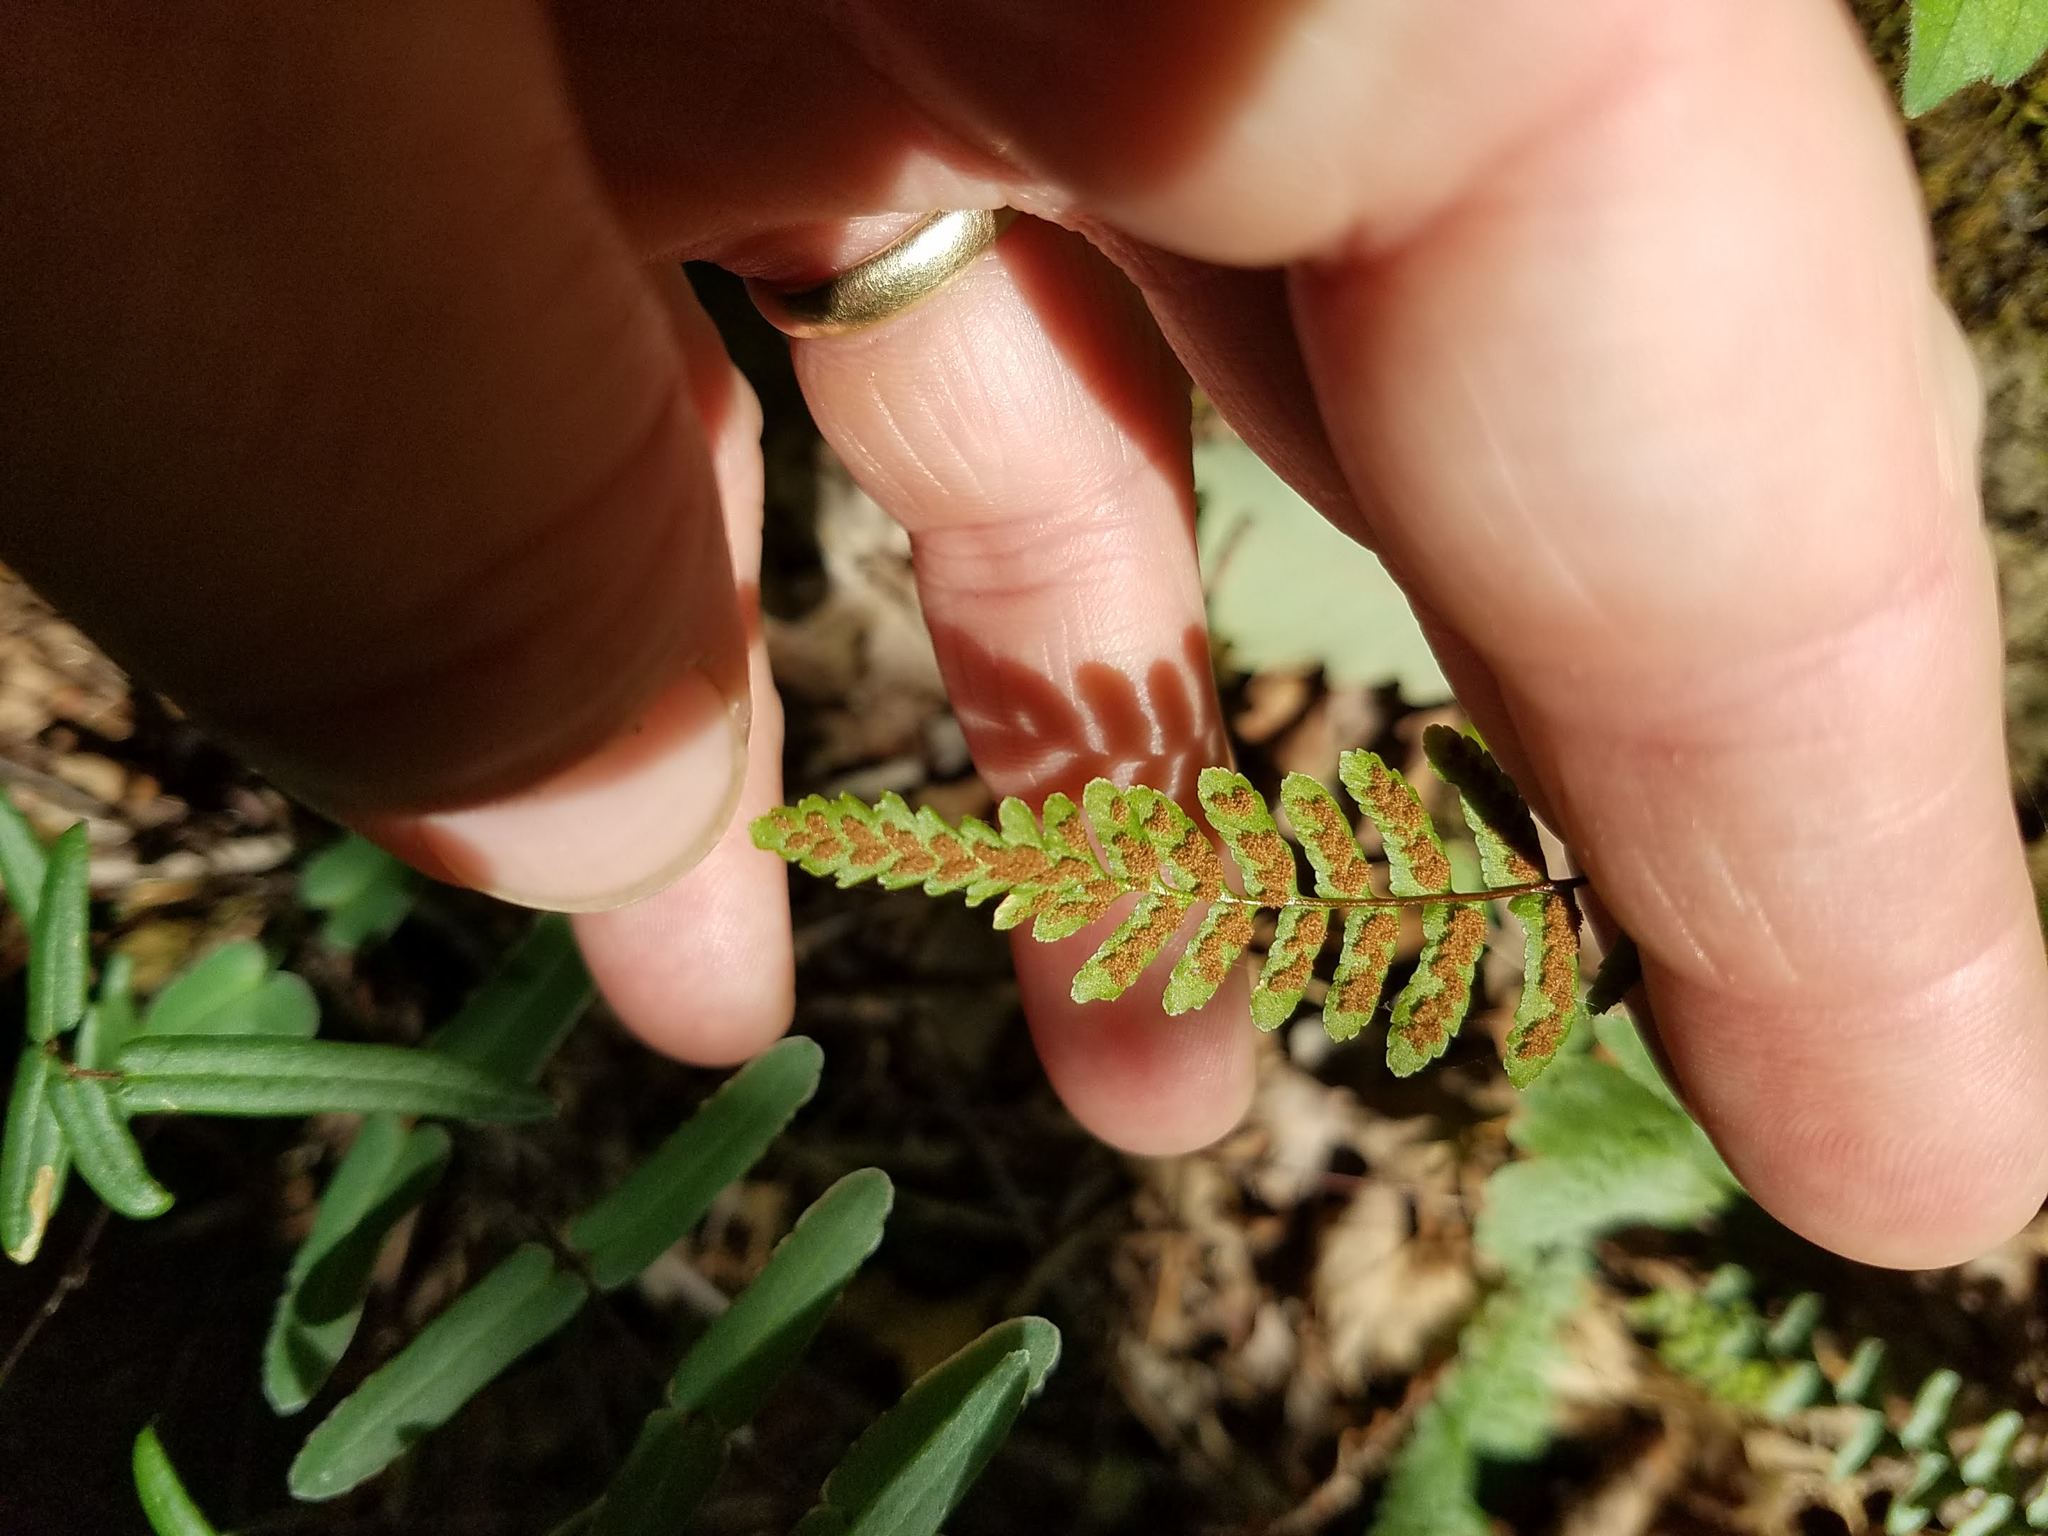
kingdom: Plantae
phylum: Tracheophyta
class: Polypodiopsida
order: Polypodiales
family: Aspleniaceae
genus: Asplenium
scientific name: Asplenium platyneuron
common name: Ebony spleenwort
